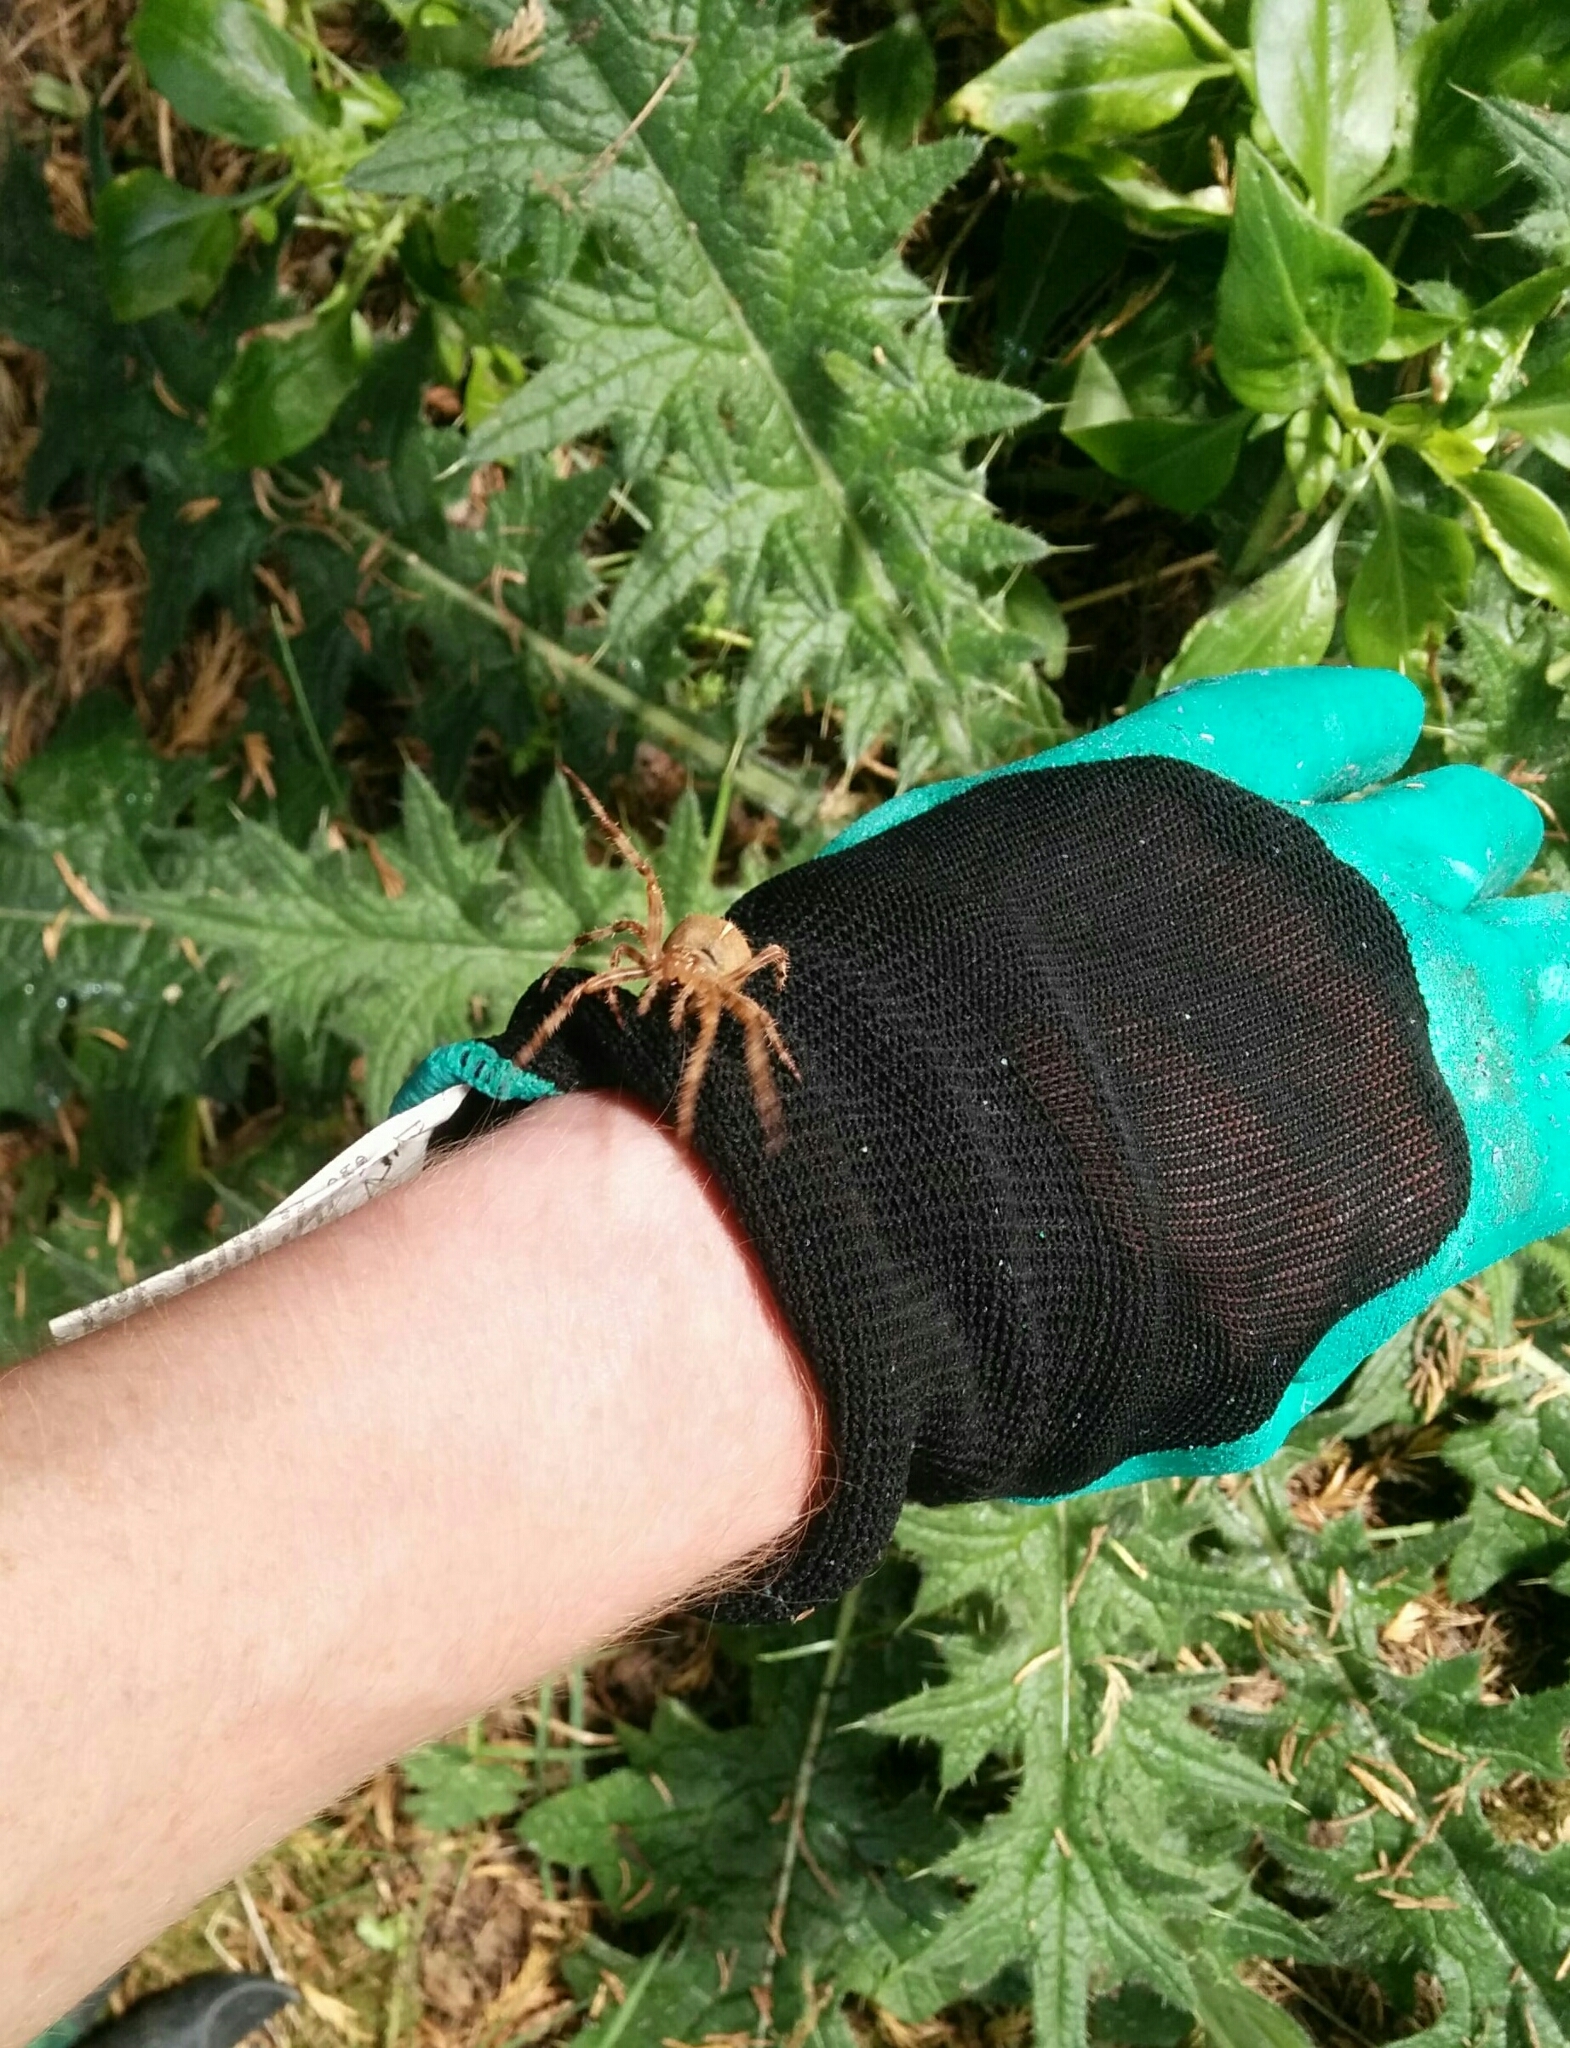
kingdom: Animalia
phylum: Arthropoda
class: Arachnida
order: Araneae
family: Araneidae
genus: Araneus
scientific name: Araneus diadematus
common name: Cross orbweaver
